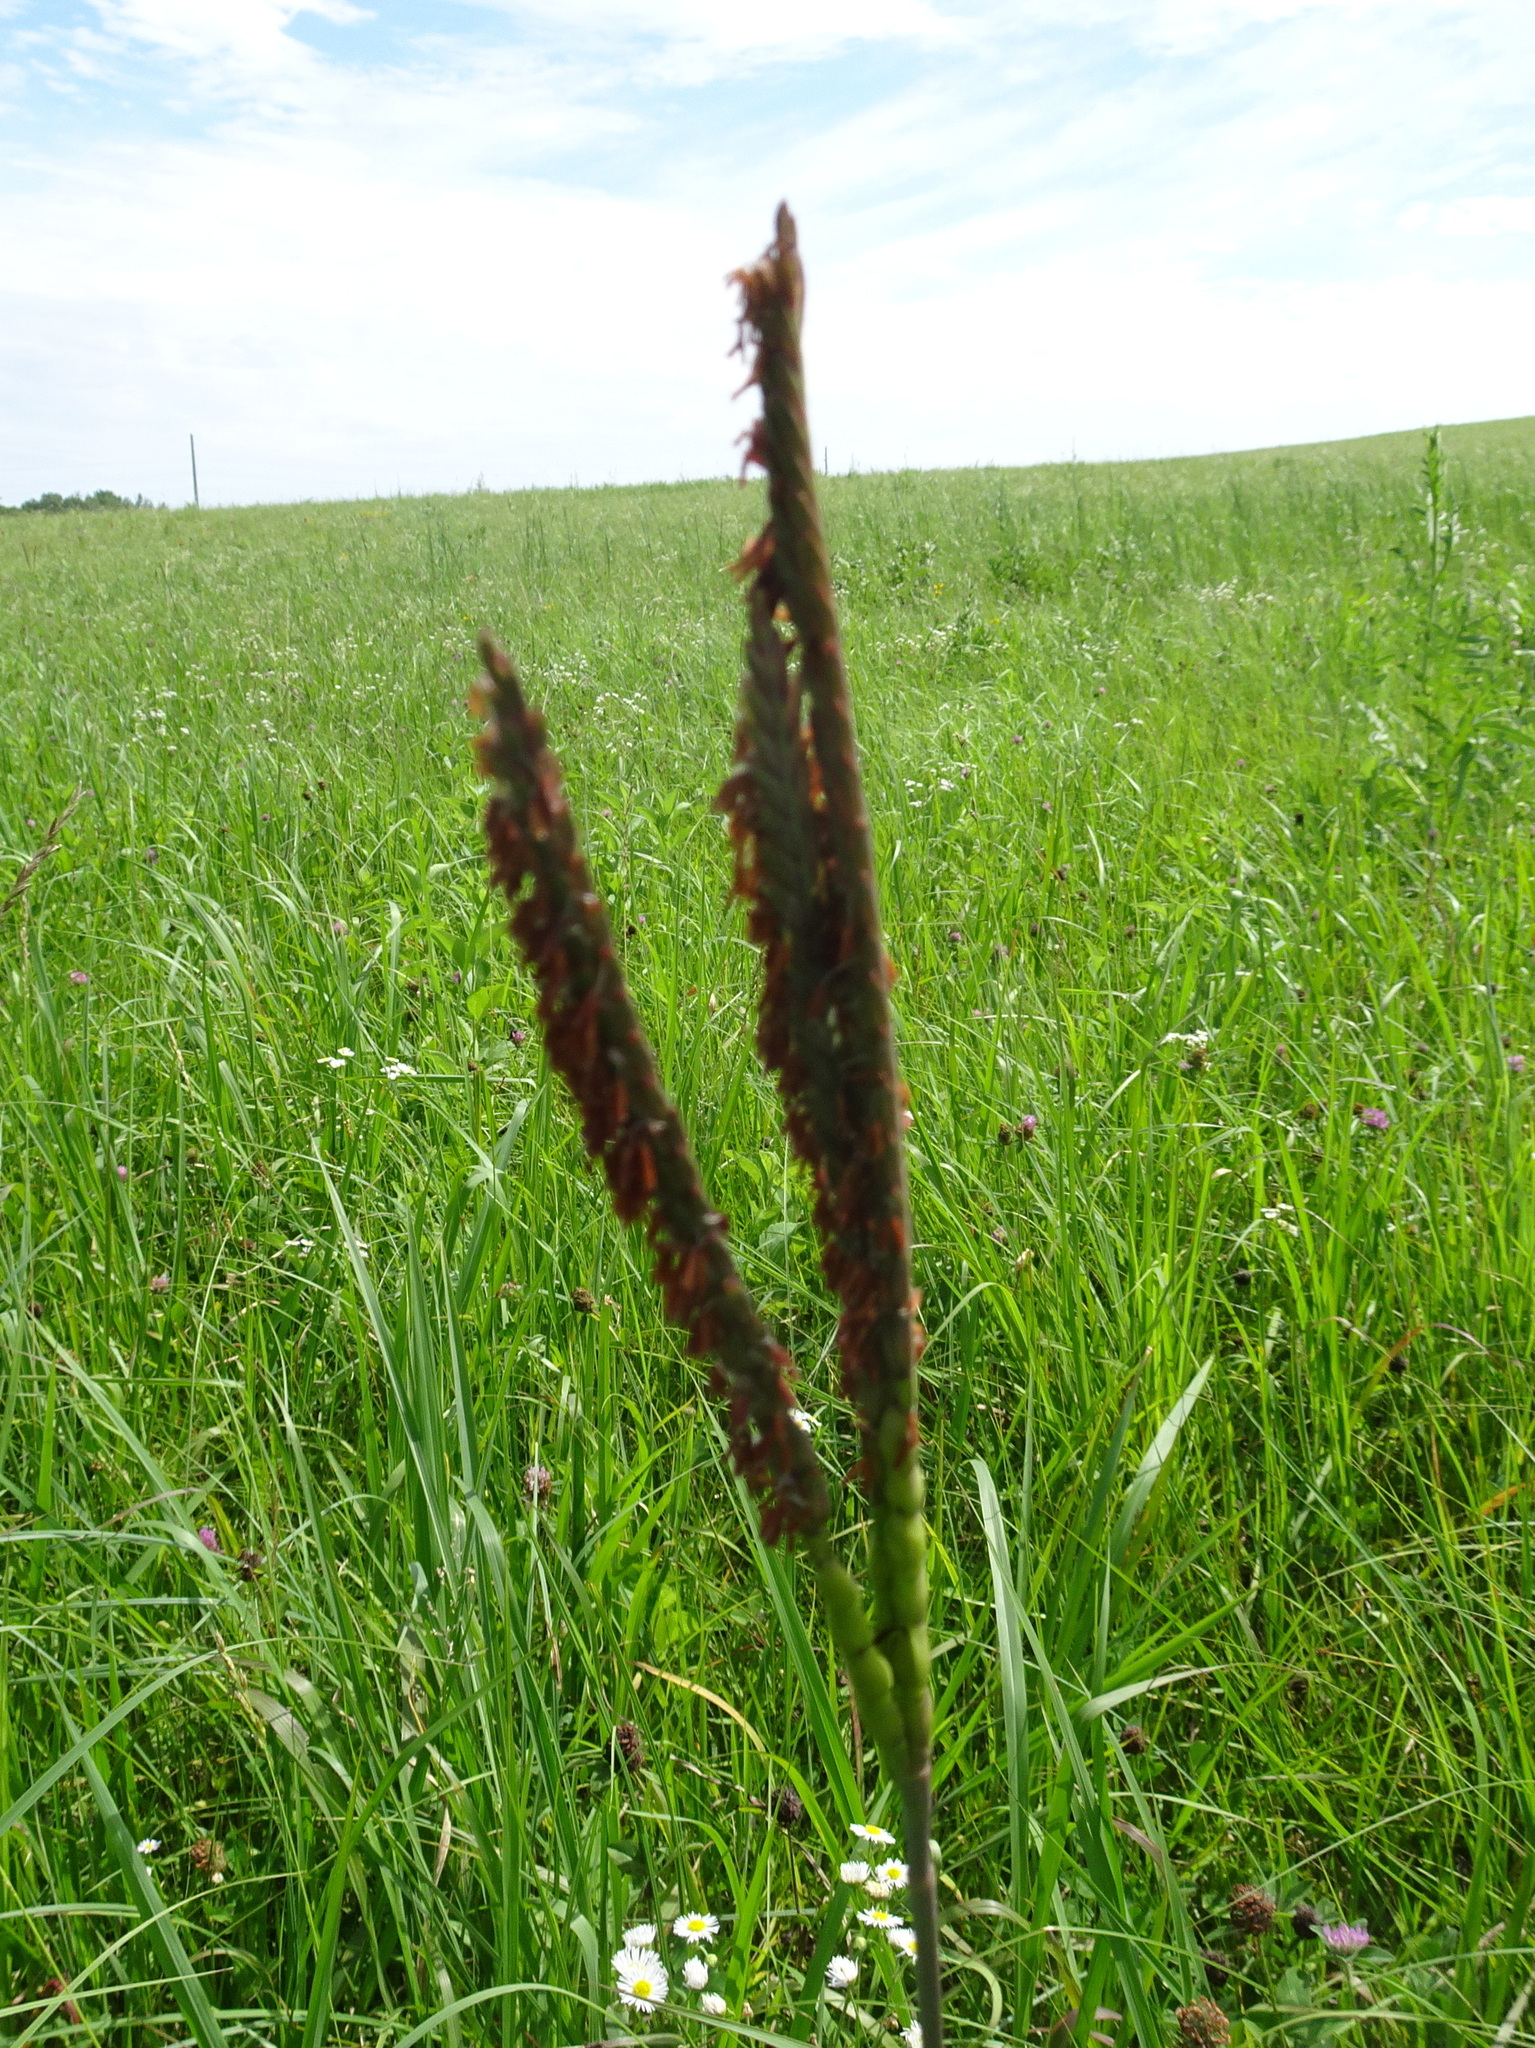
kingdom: Plantae
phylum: Tracheophyta
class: Liliopsida
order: Poales
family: Poaceae
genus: Tripsacum
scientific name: Tripsacum dactyloides
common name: Buffalo-grass
